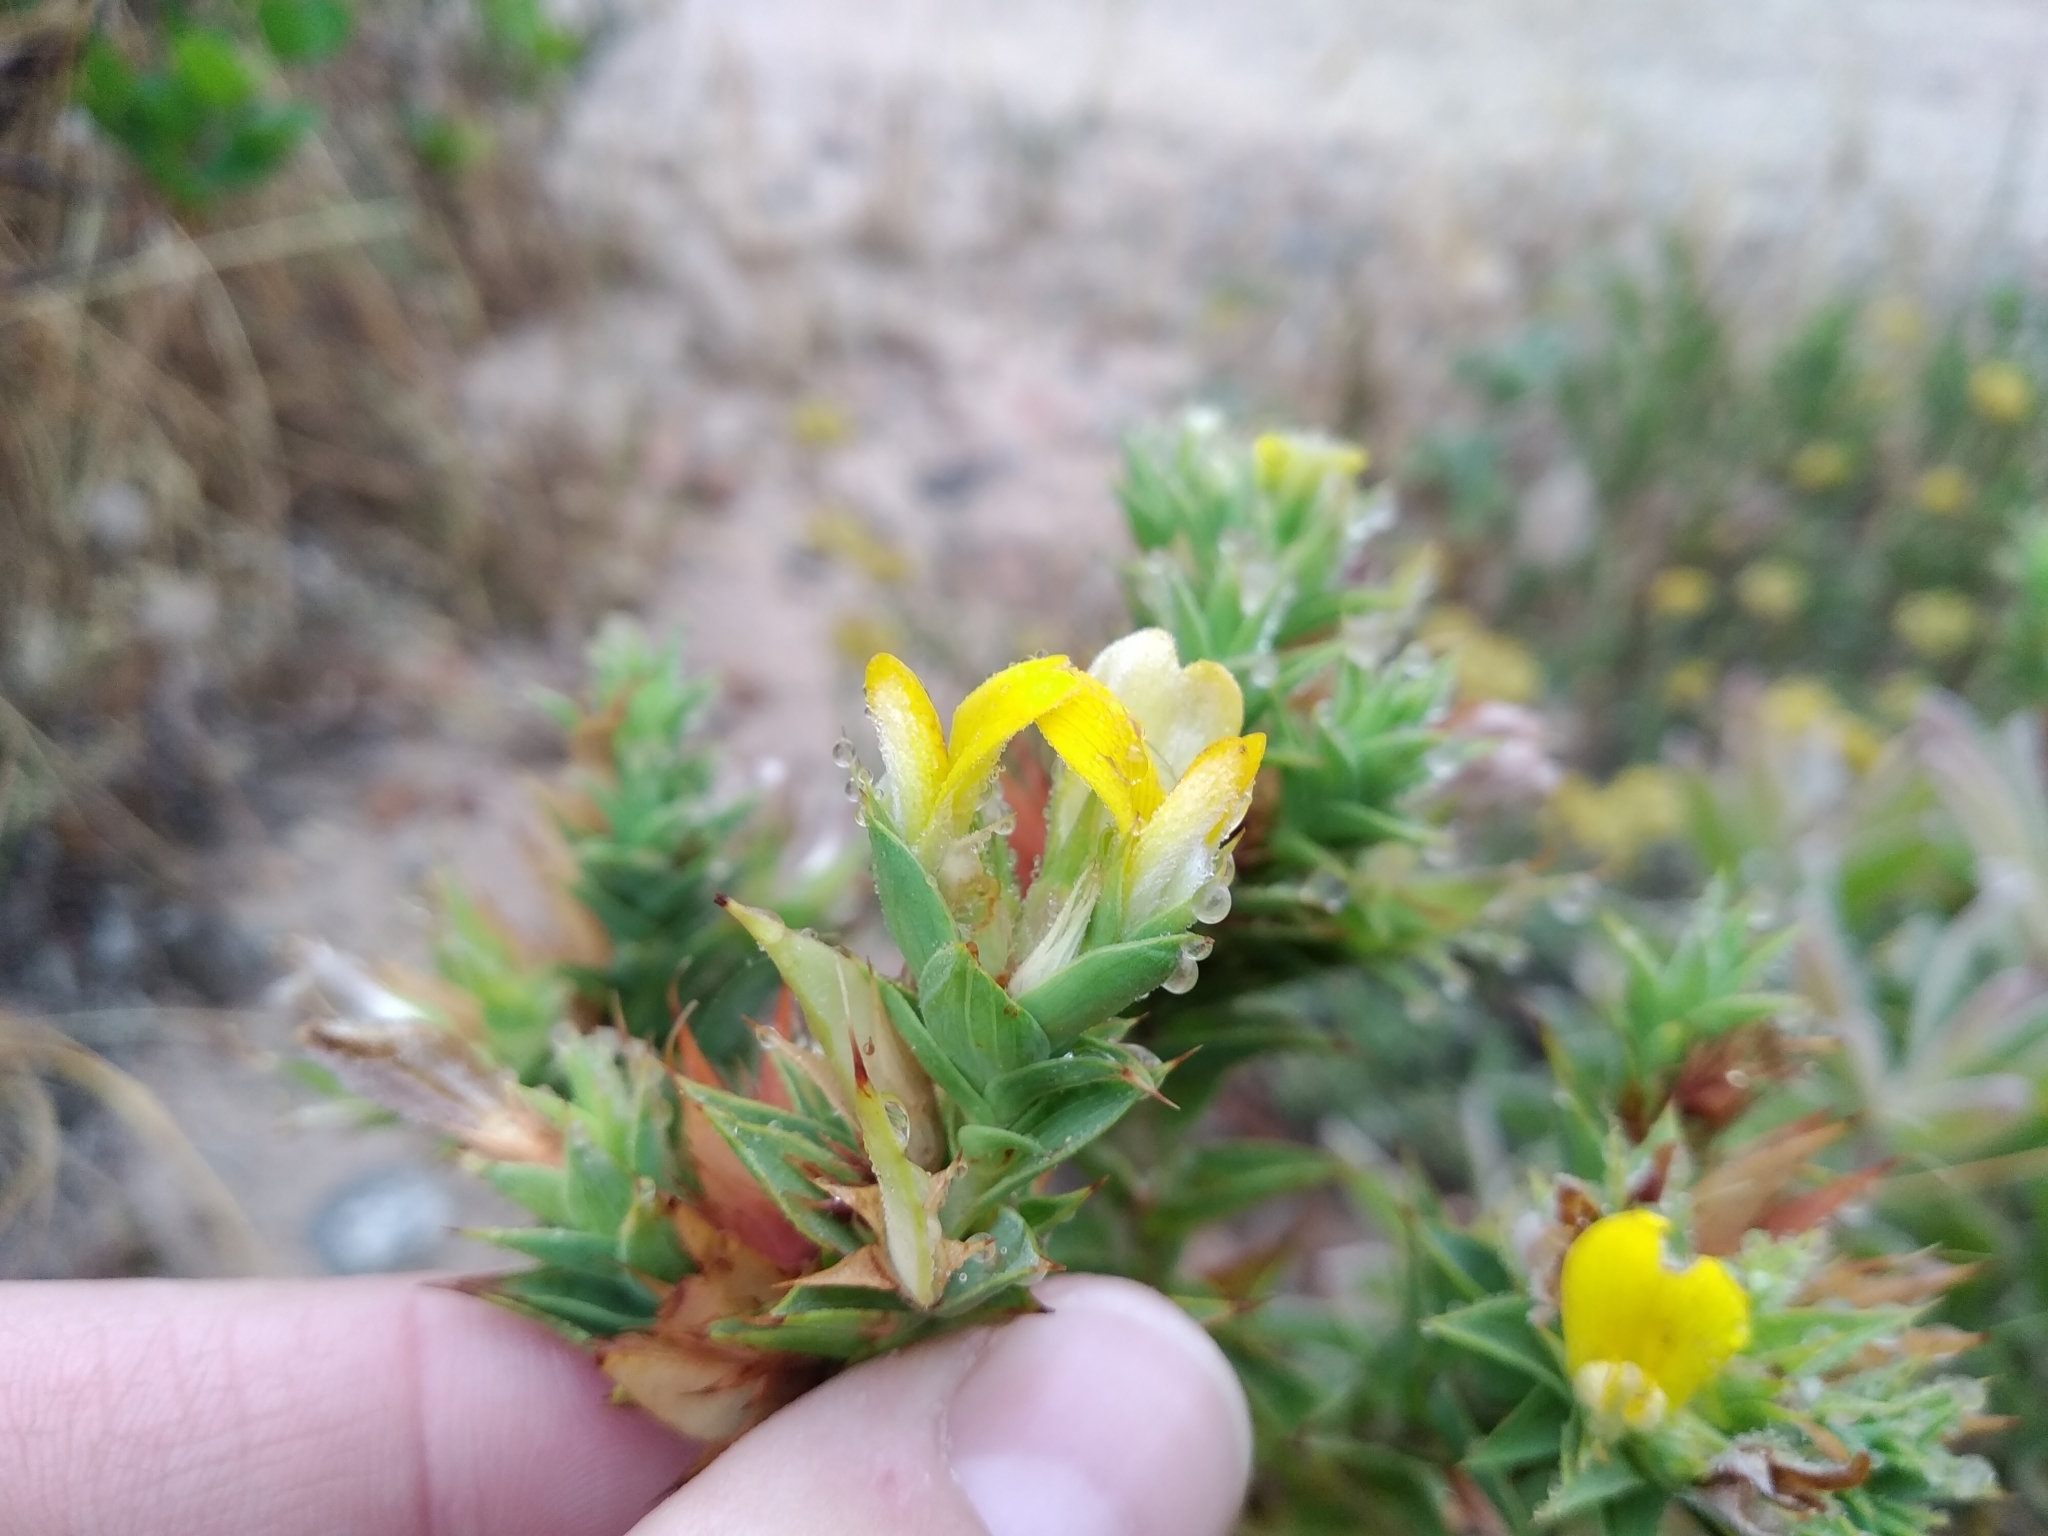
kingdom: Plantae
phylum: Tracheophyta
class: Magnoliopsida
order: Fabales
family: Fabaceae
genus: Aspalathus
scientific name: Aspalathus cordata
